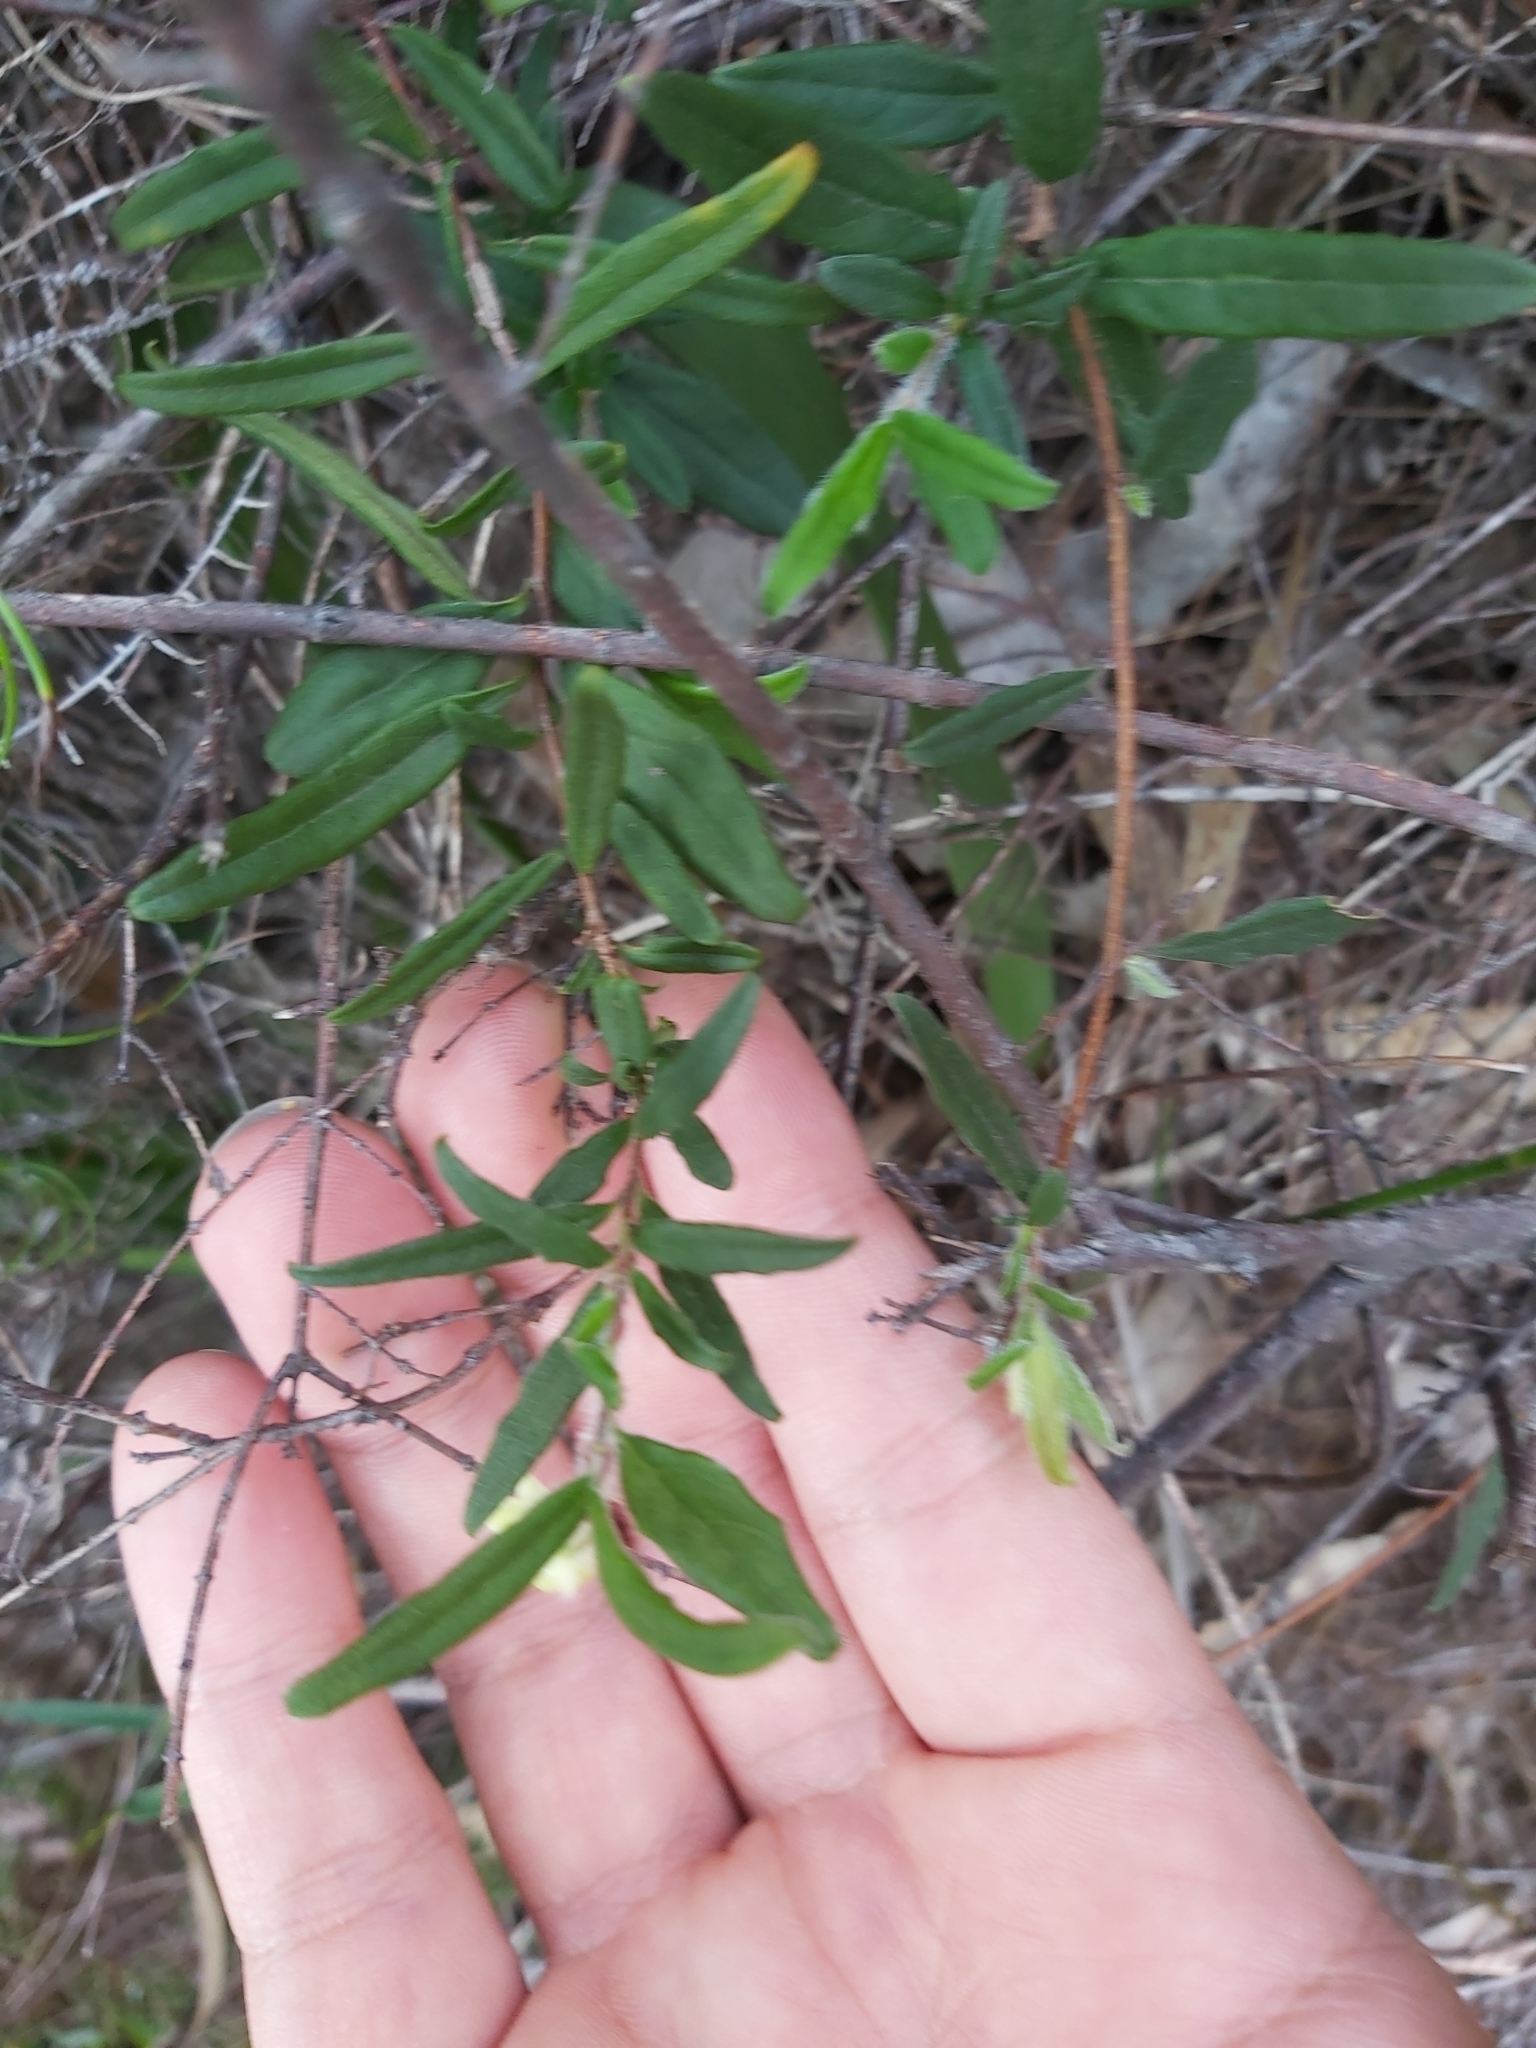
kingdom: Plantae
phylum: Tracheophyta
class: Magnoliopsida
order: Apiales
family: Pittosporaceae
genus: Billardiera
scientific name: Billardiera scandens
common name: Apple-berry
